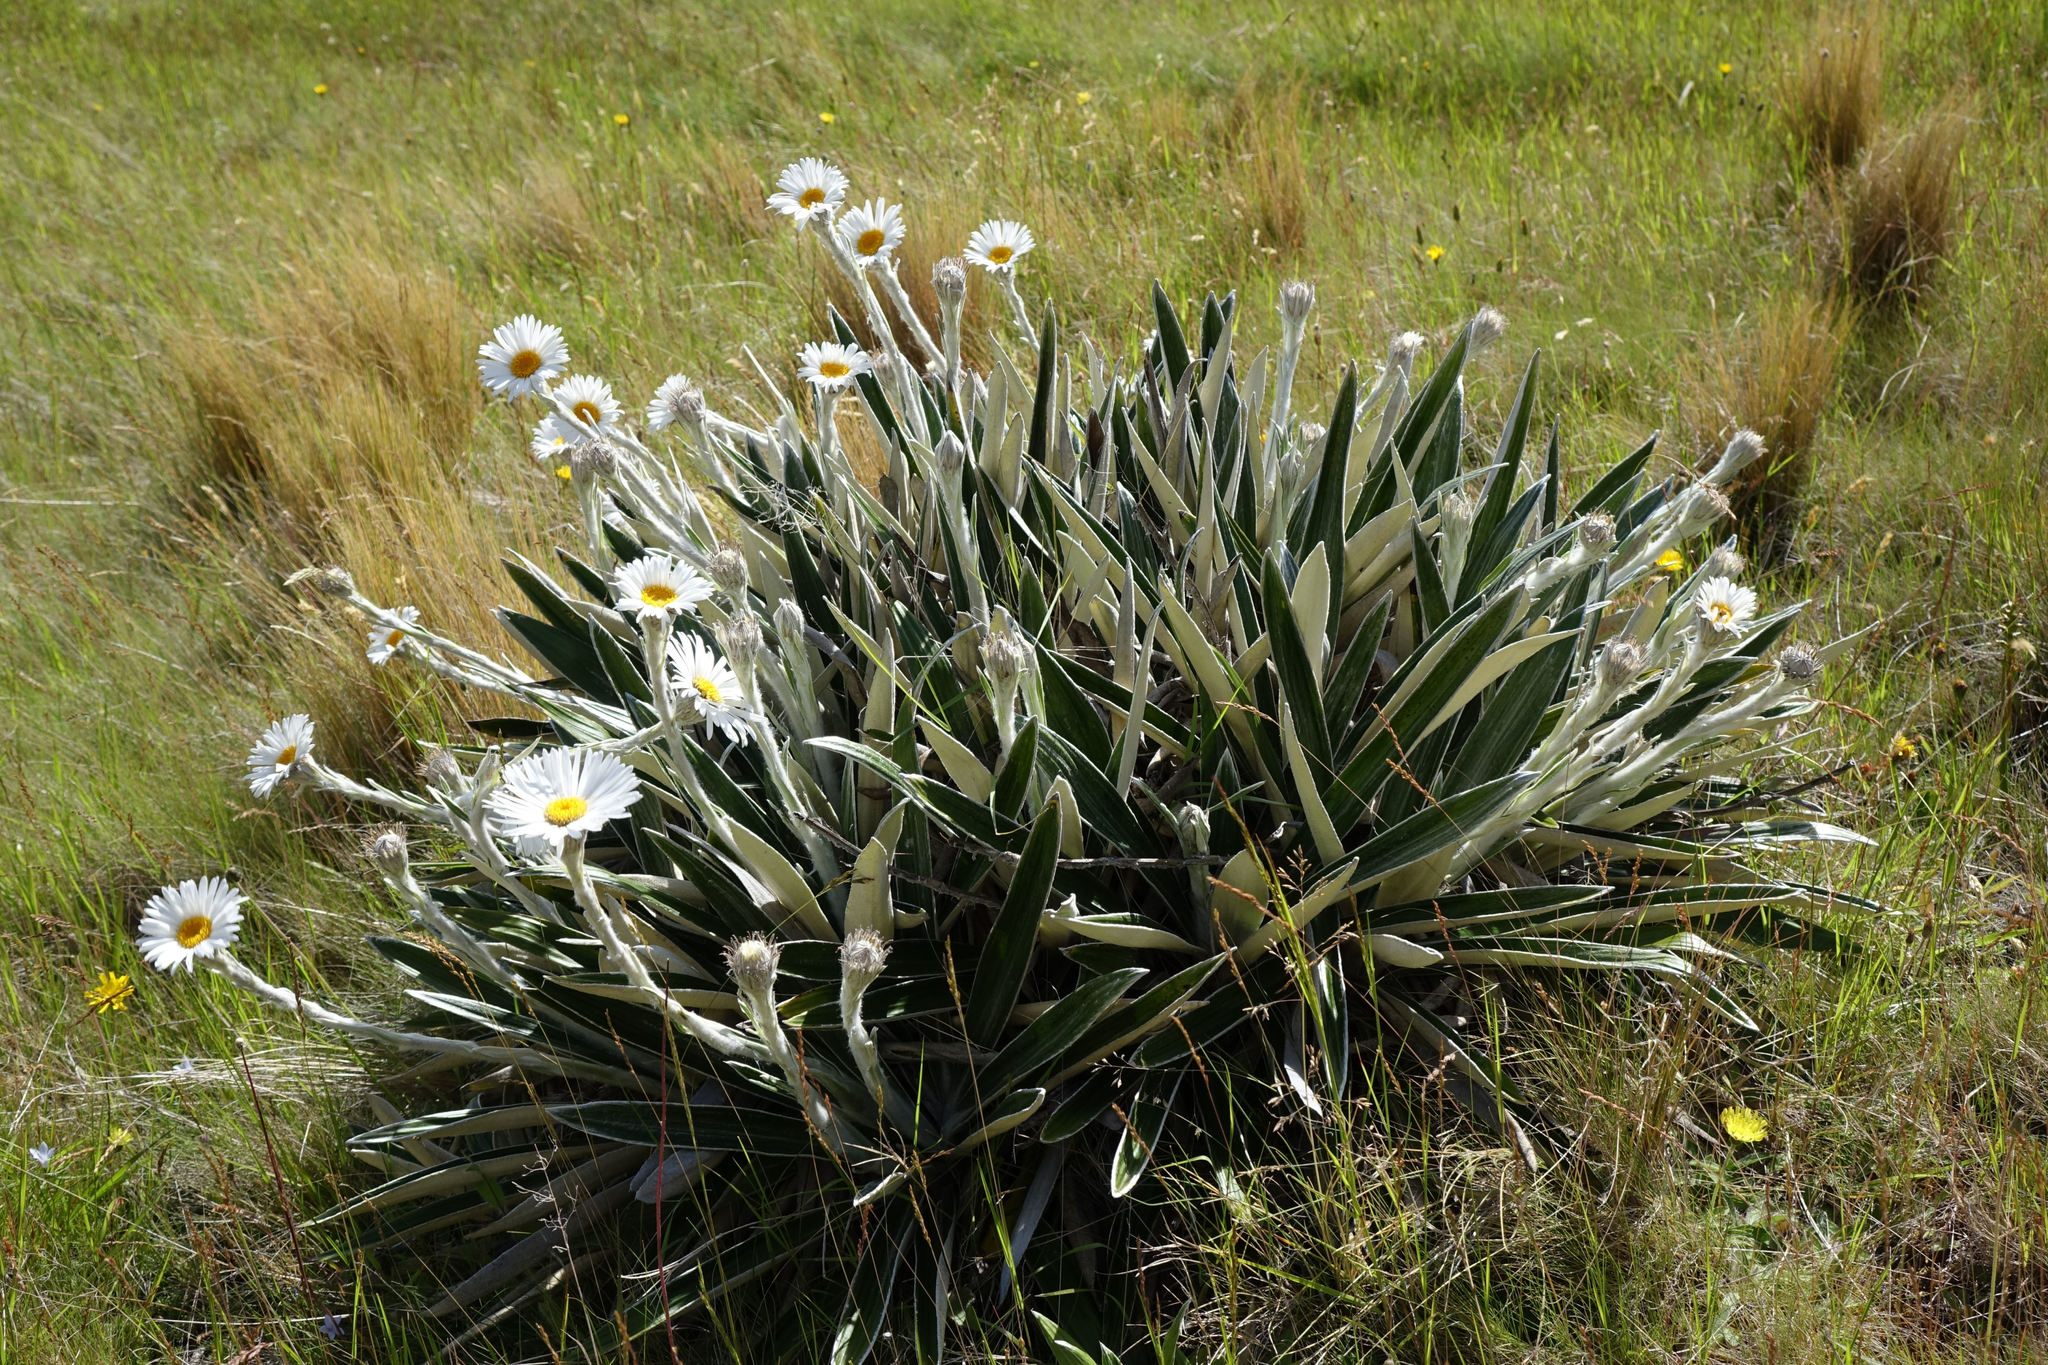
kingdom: Plantae
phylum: Tracheophyta
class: Magnoliopsida
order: Asterales
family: Asteraceae
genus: Celmisia
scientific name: Celmisia spectabilis
